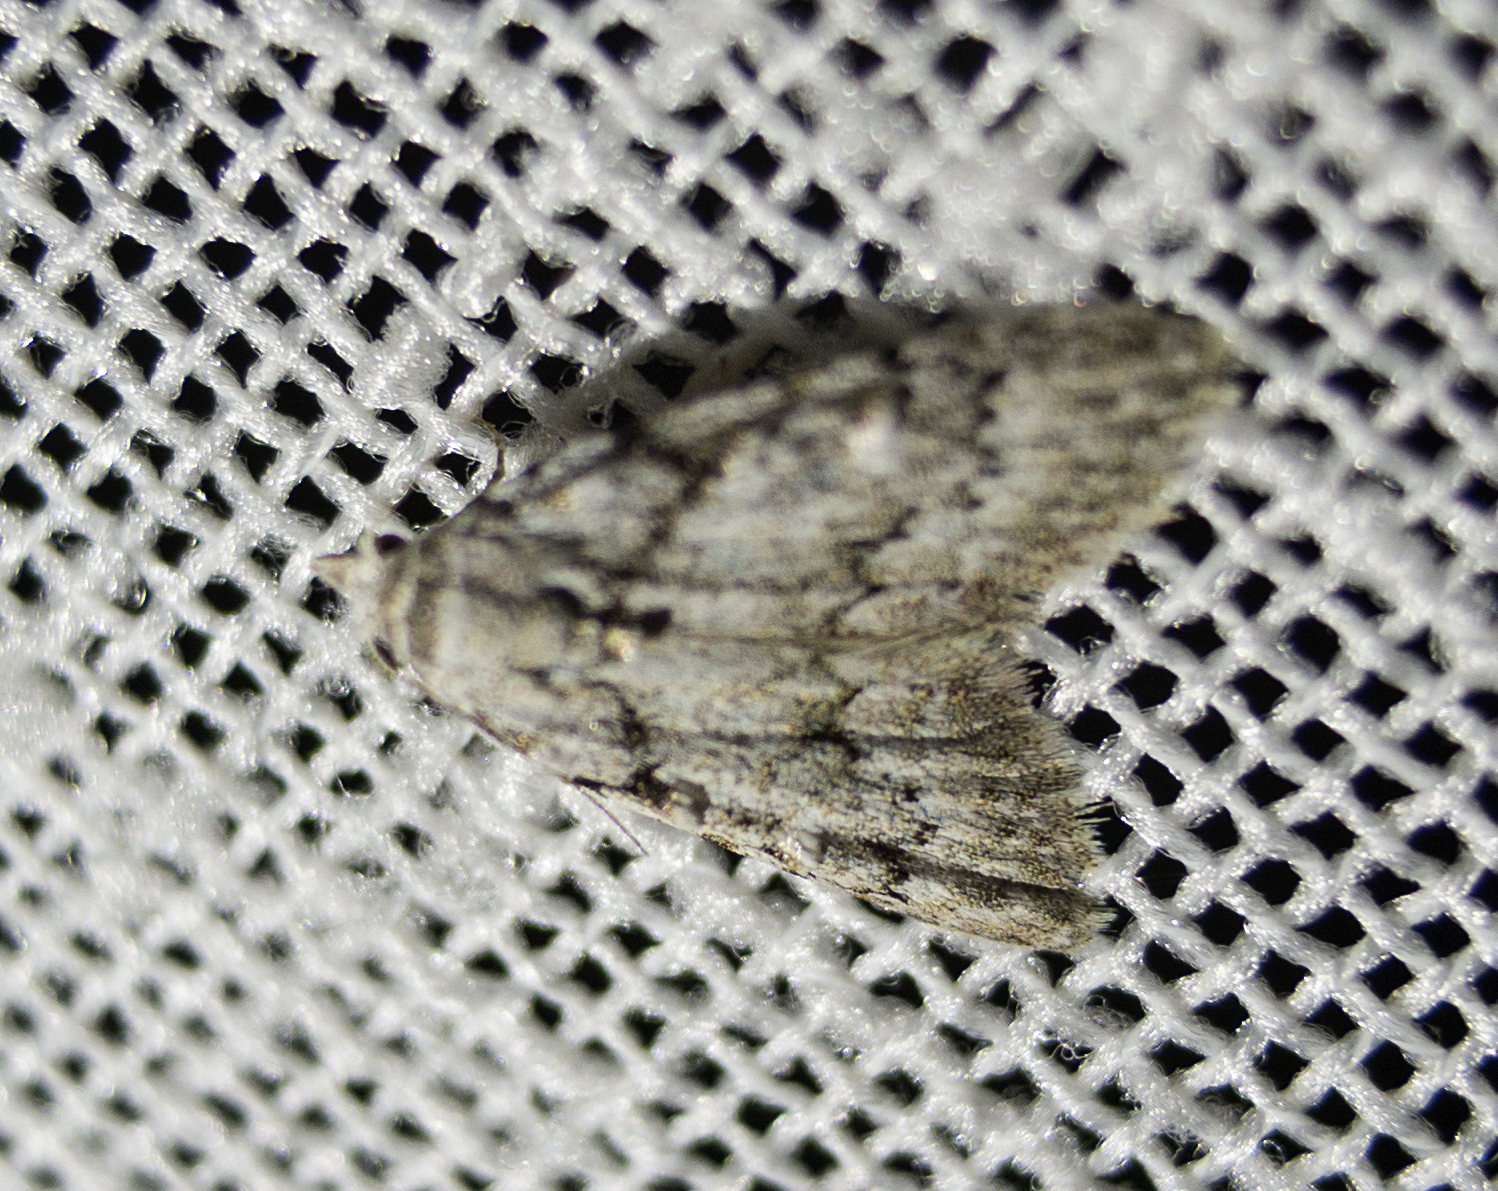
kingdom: Animalia
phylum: Arthropoda
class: Insecta
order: Lepidoptera
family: Nolidae
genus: Nola
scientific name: Nola cicatricalis
